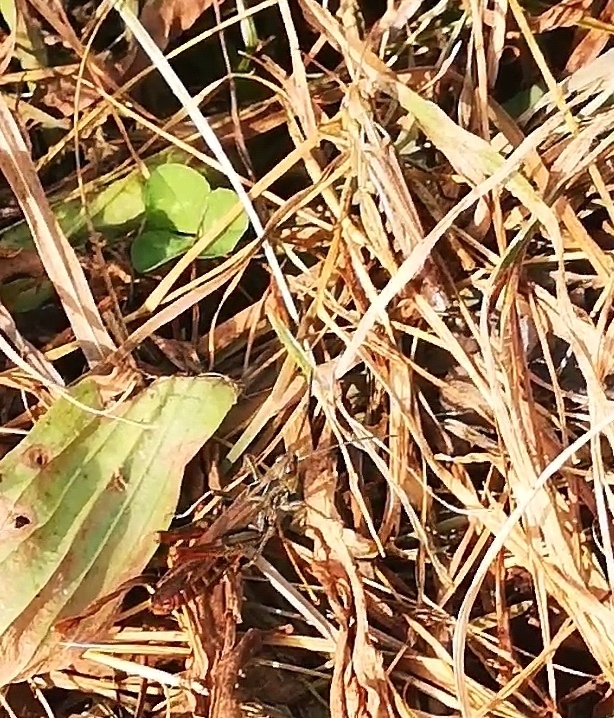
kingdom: Animalia
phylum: Arthropoda
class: Insecta
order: Orthoptera
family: Acrididae
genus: Chorthippus
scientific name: Chorthippus biguttulus
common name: Bow-winged grasshopper
